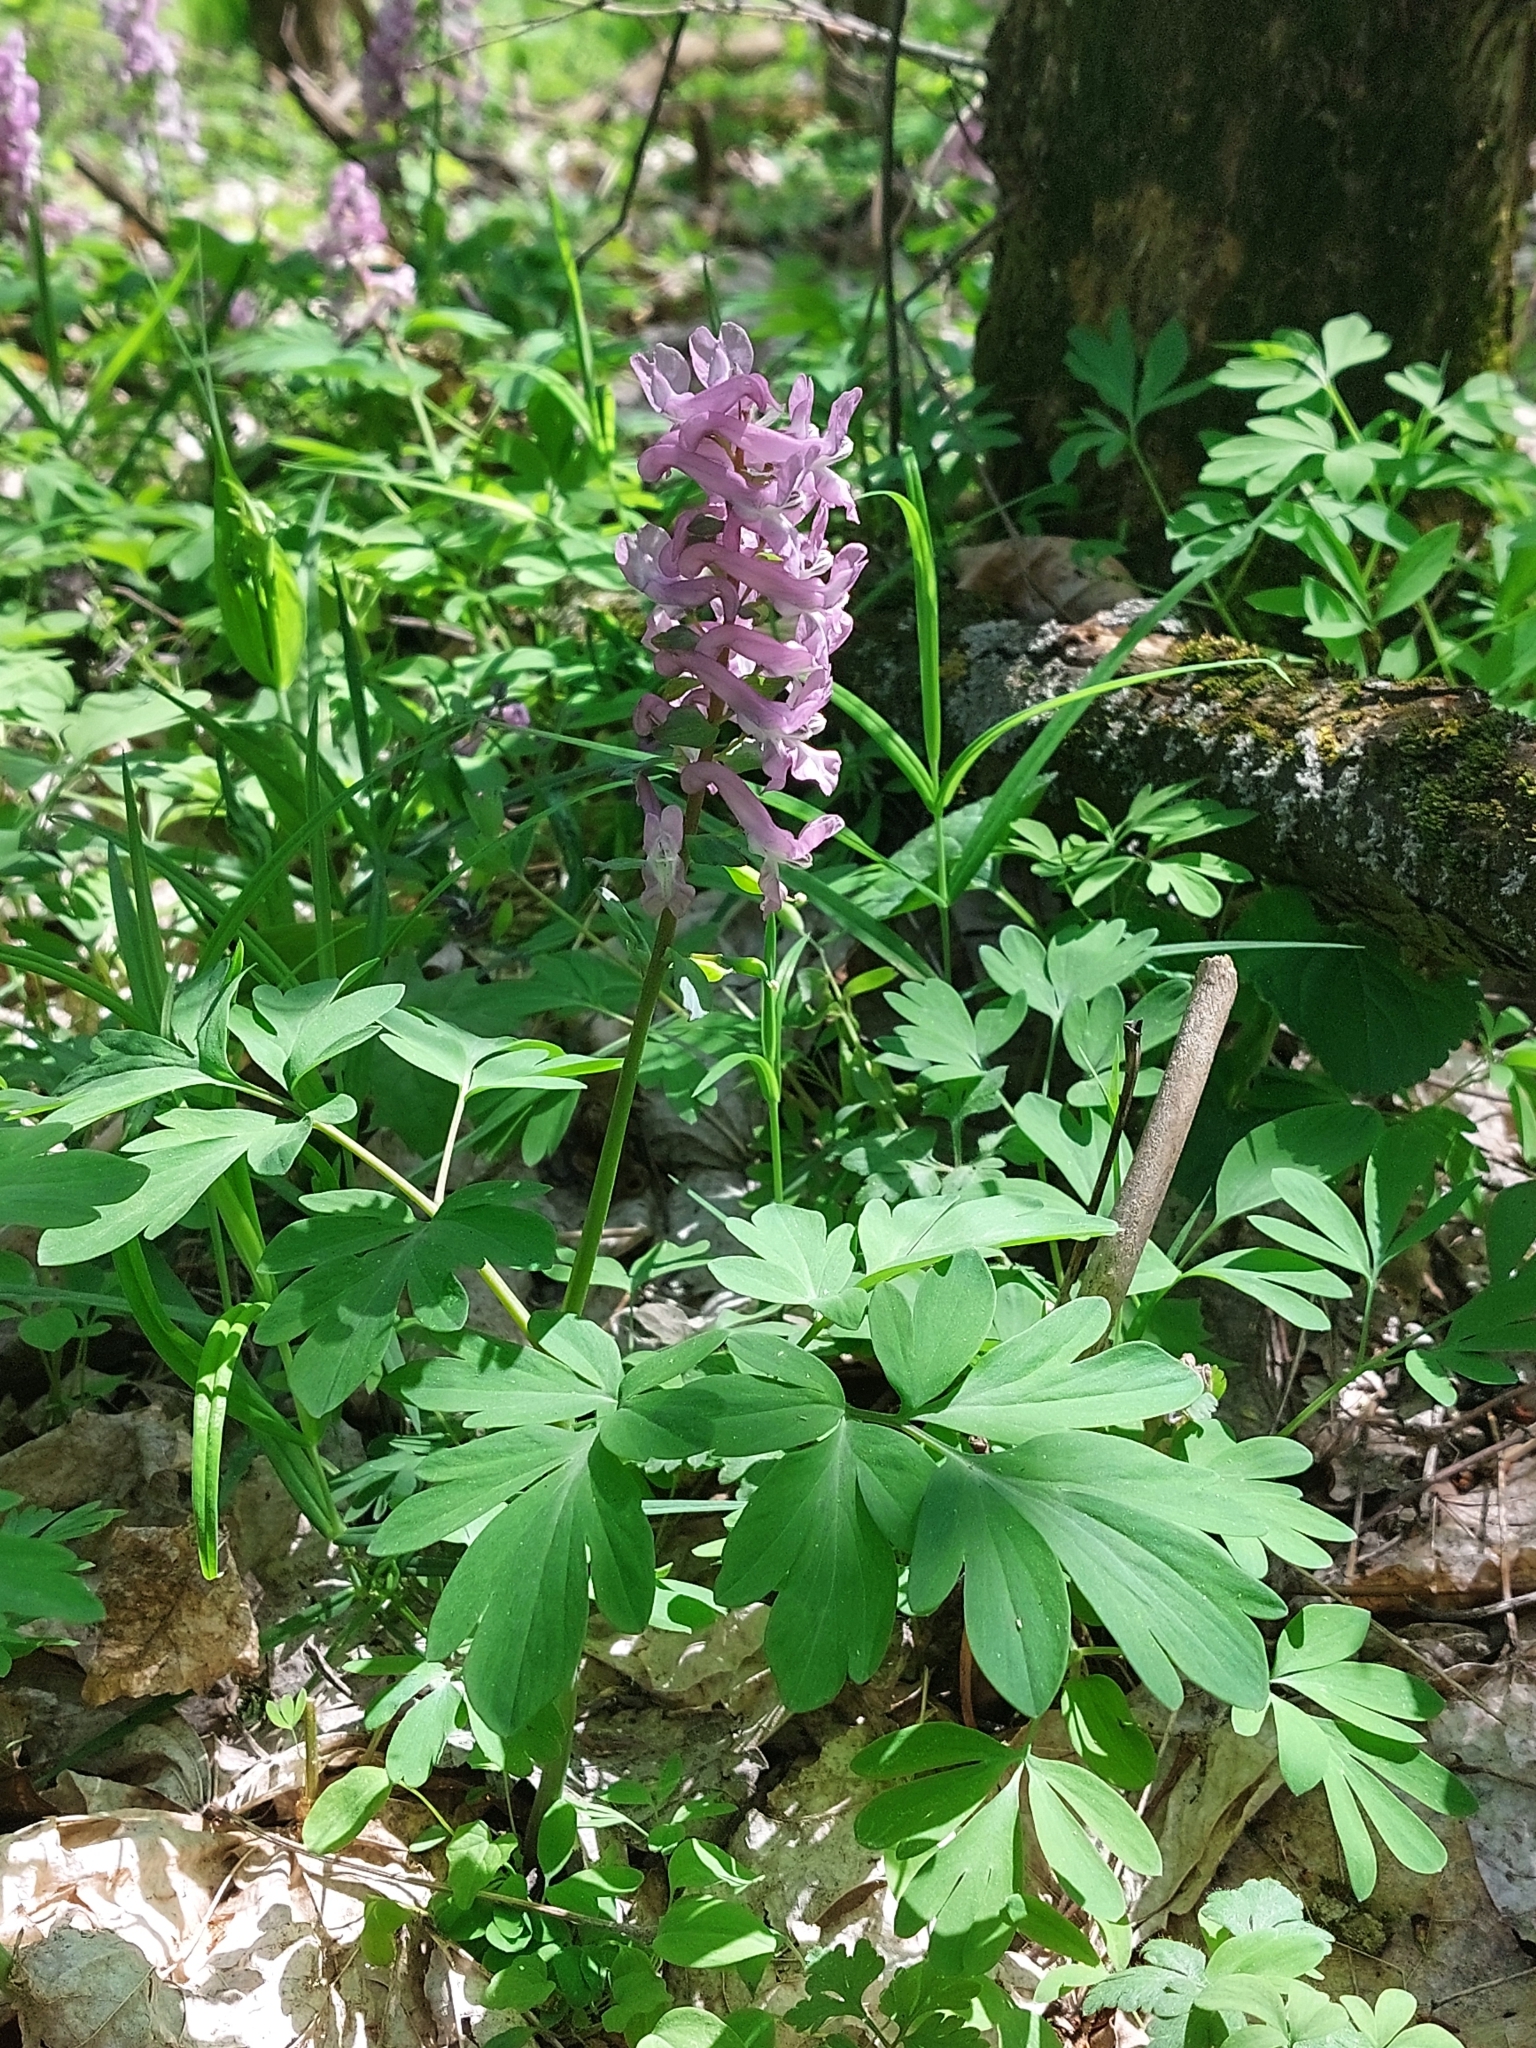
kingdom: Plantae
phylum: Tracheophyta
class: Magnoliopsida
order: Ranunculales
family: Papaveraceae
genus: Corydalis
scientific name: Corydalis cava
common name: Hollowroot
